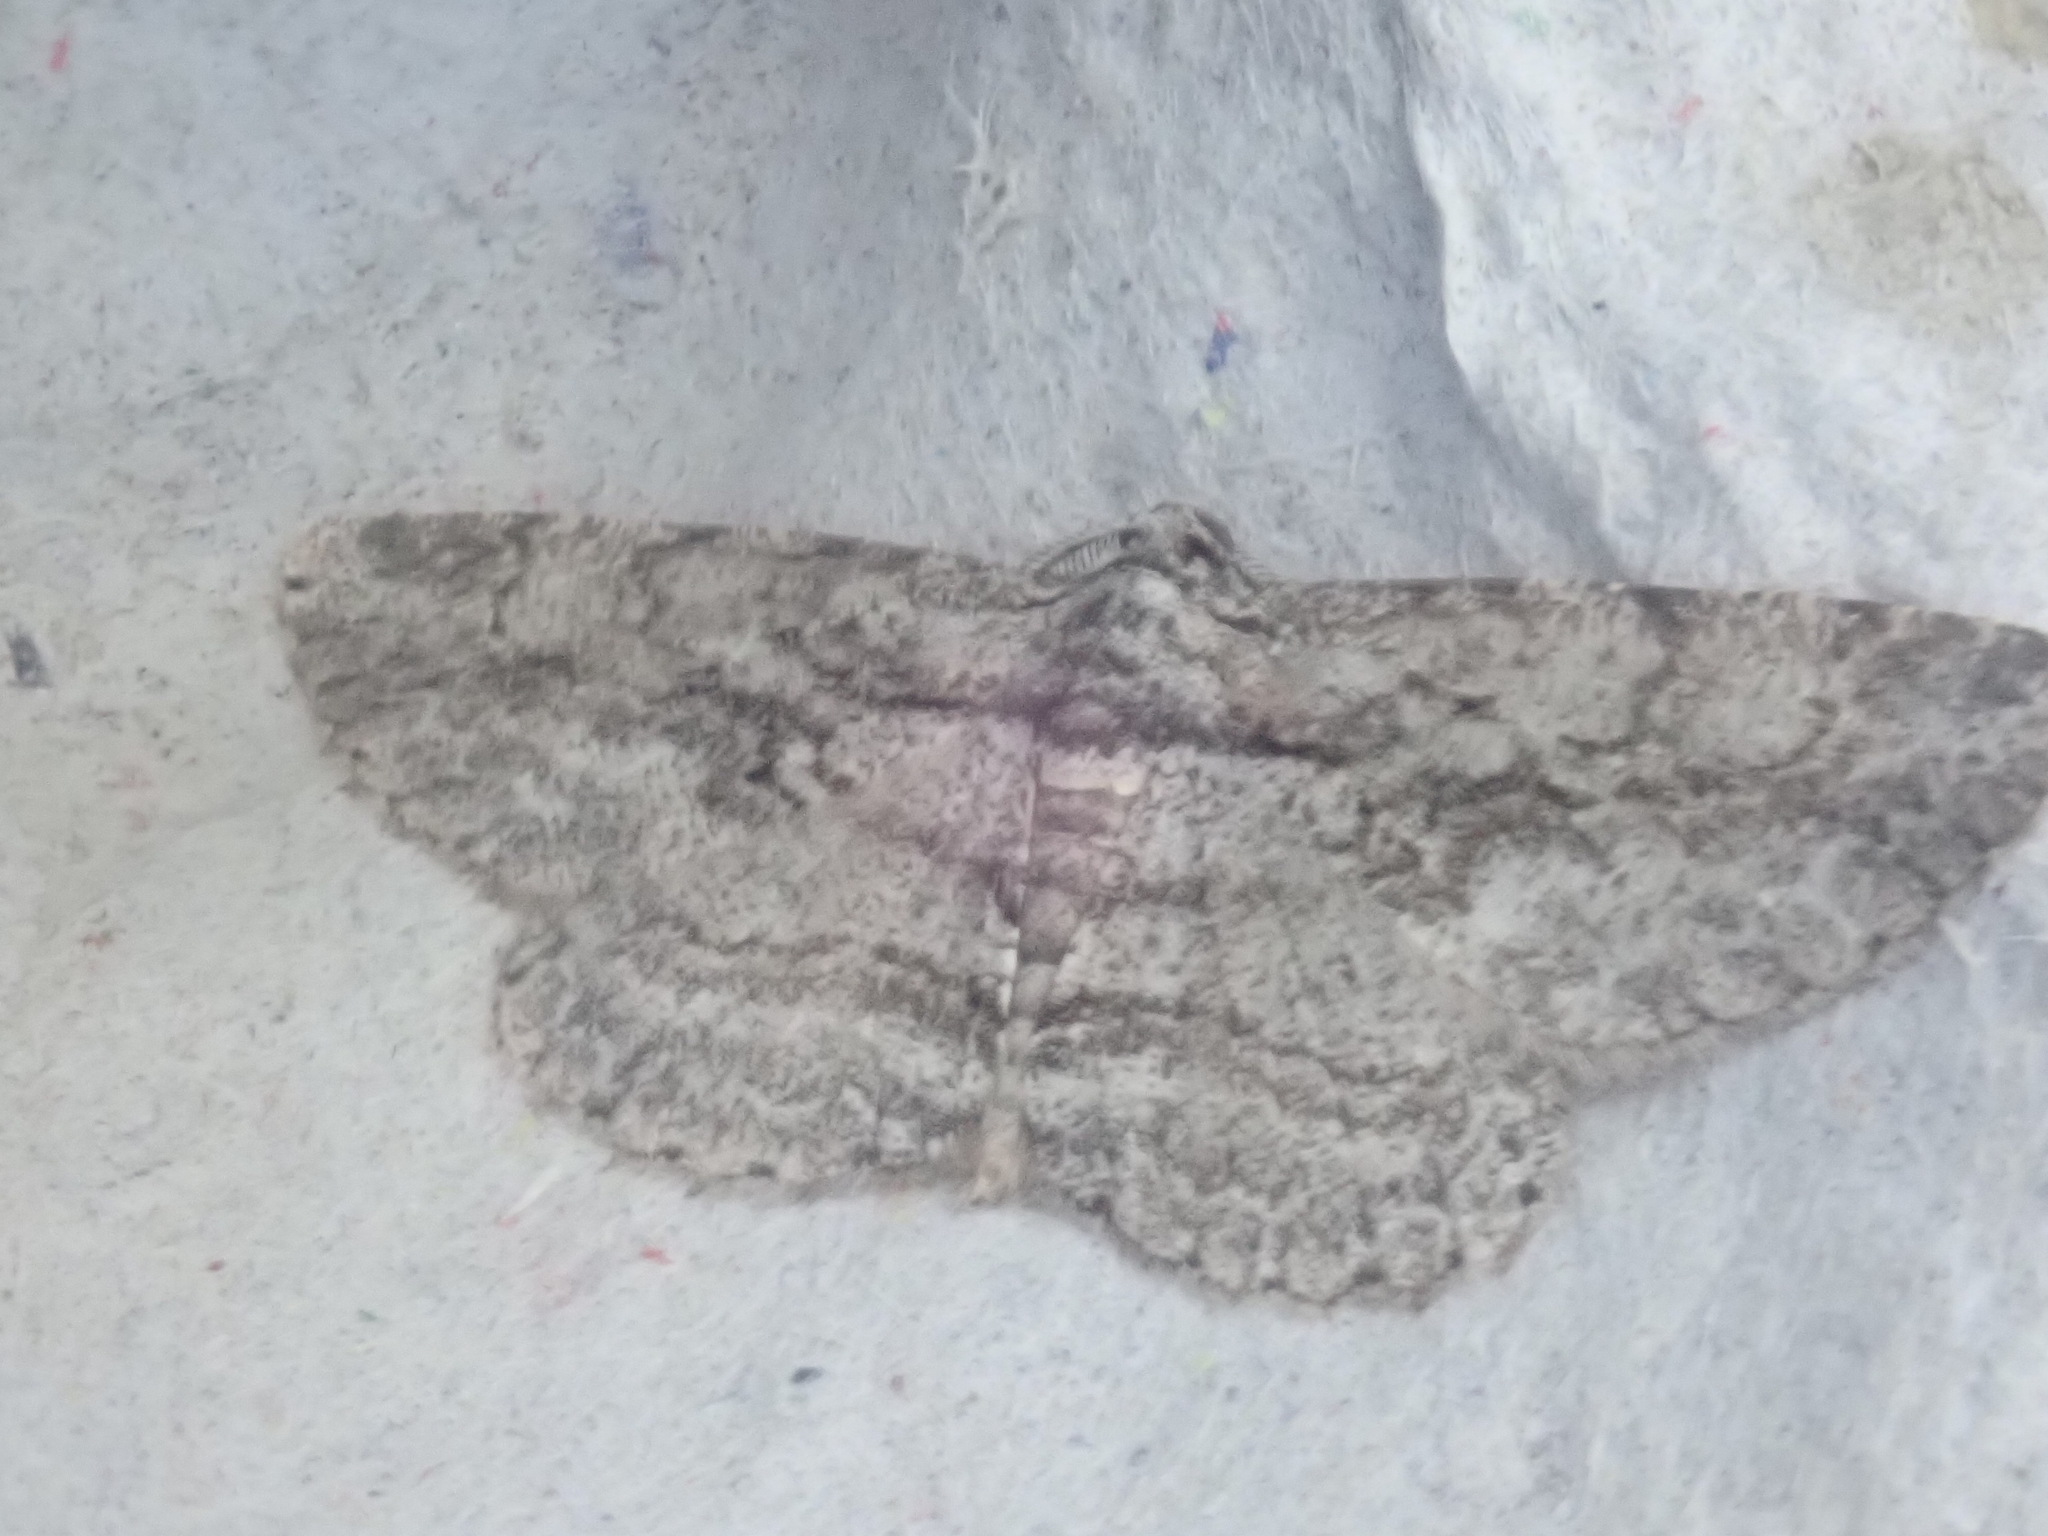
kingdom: Animalia
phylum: Arthropoda
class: Insecta
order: Lepidoptera
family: Geometridae
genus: Anavitrinella
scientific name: Anavitrinella pampinaria
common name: Common gray
